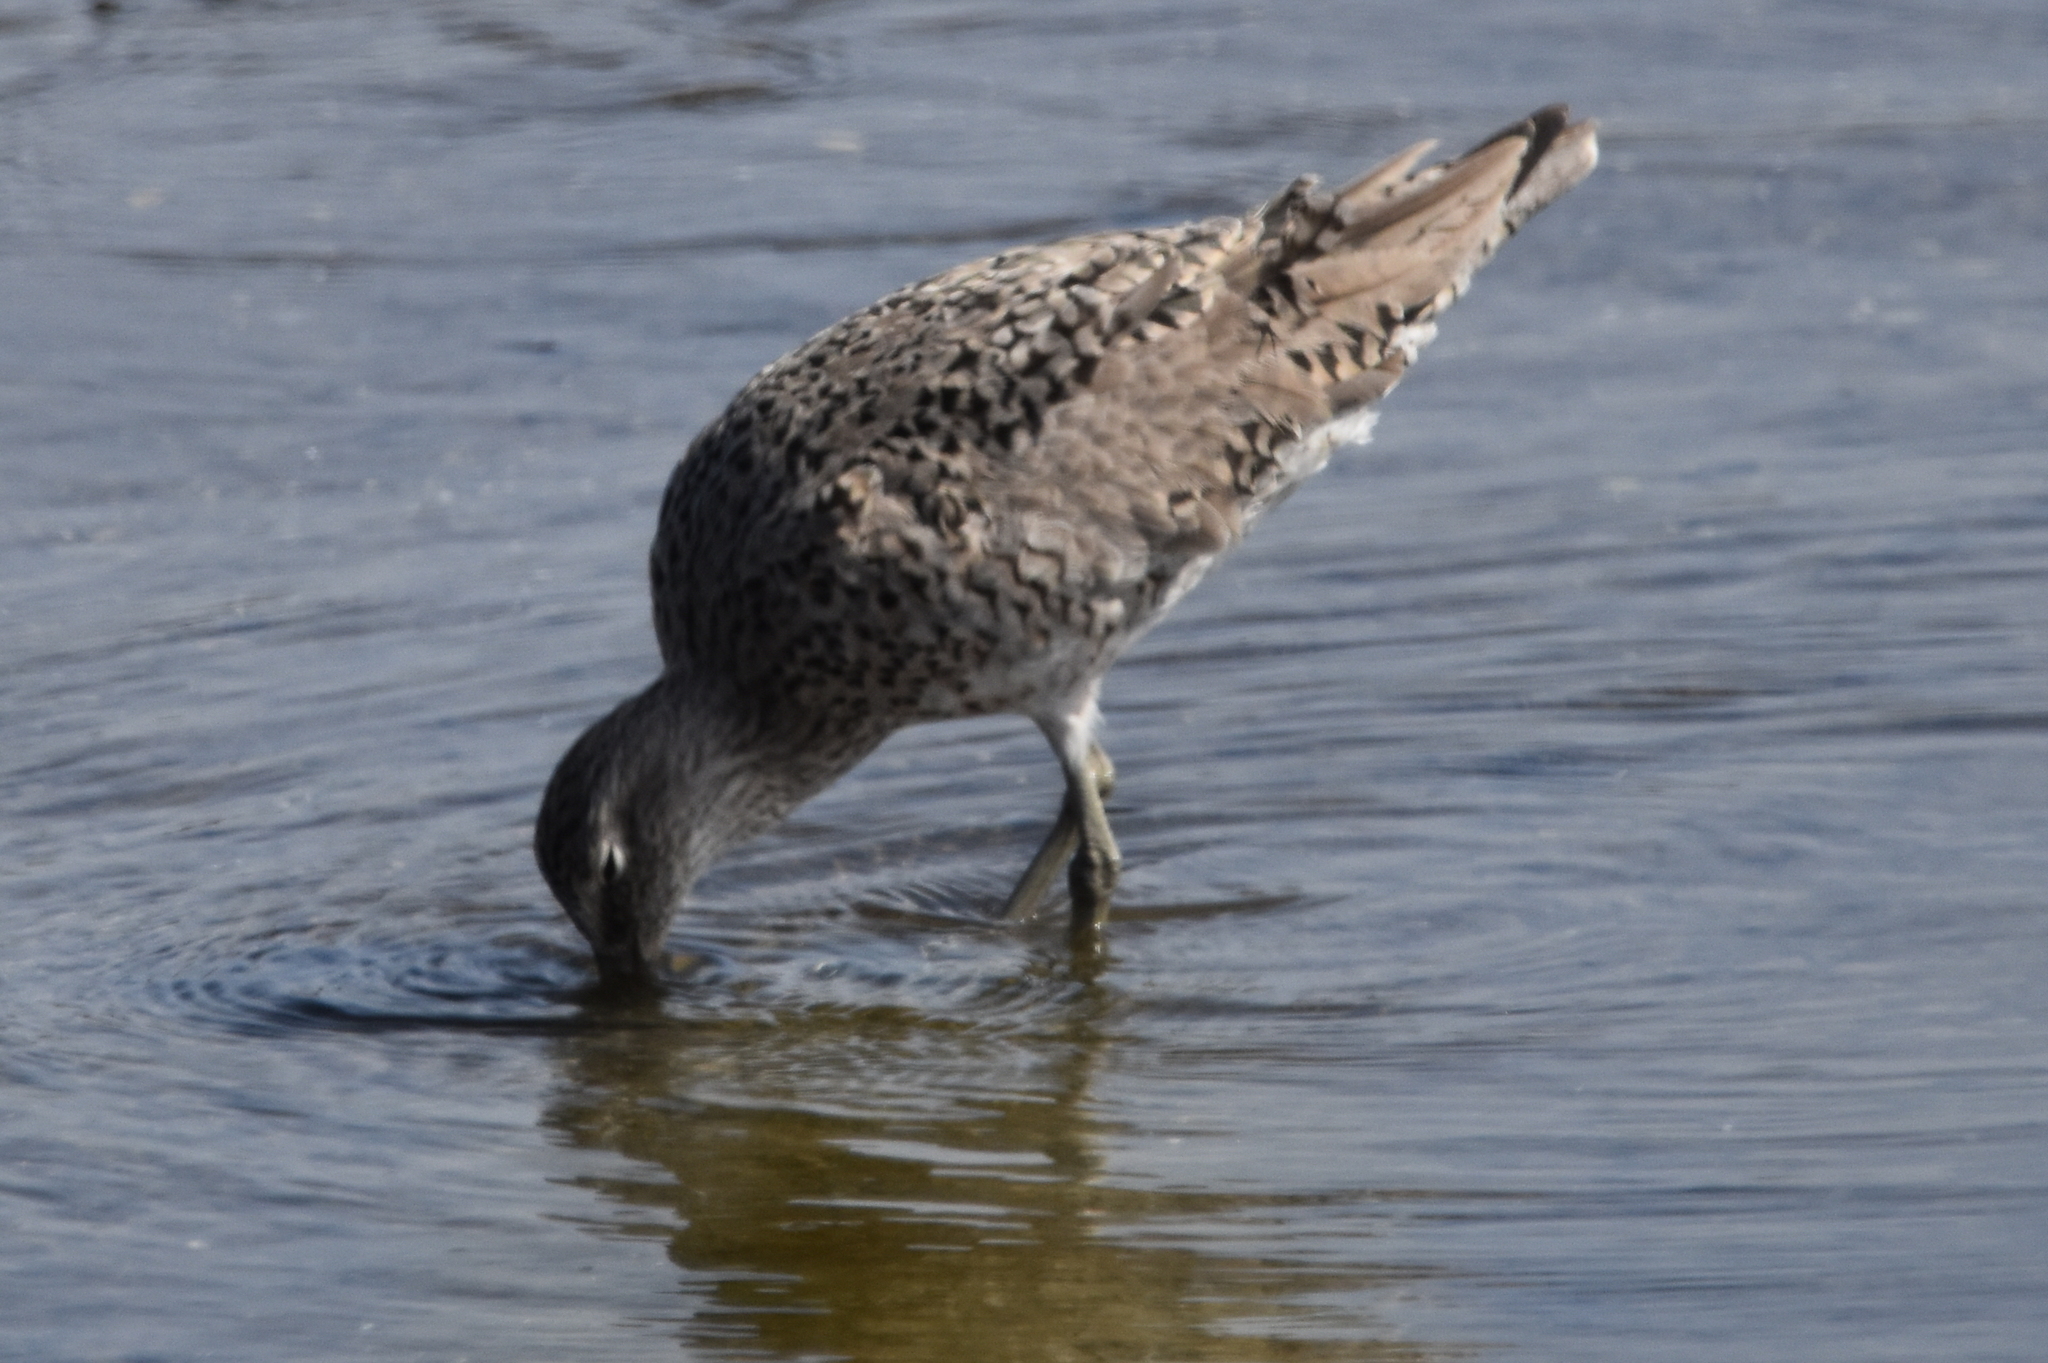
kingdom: Animalia
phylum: Chordata
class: Aves
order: Charadriiformes
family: Scolopacidae
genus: Tringa
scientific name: Tringa semipalmata
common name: Willet
